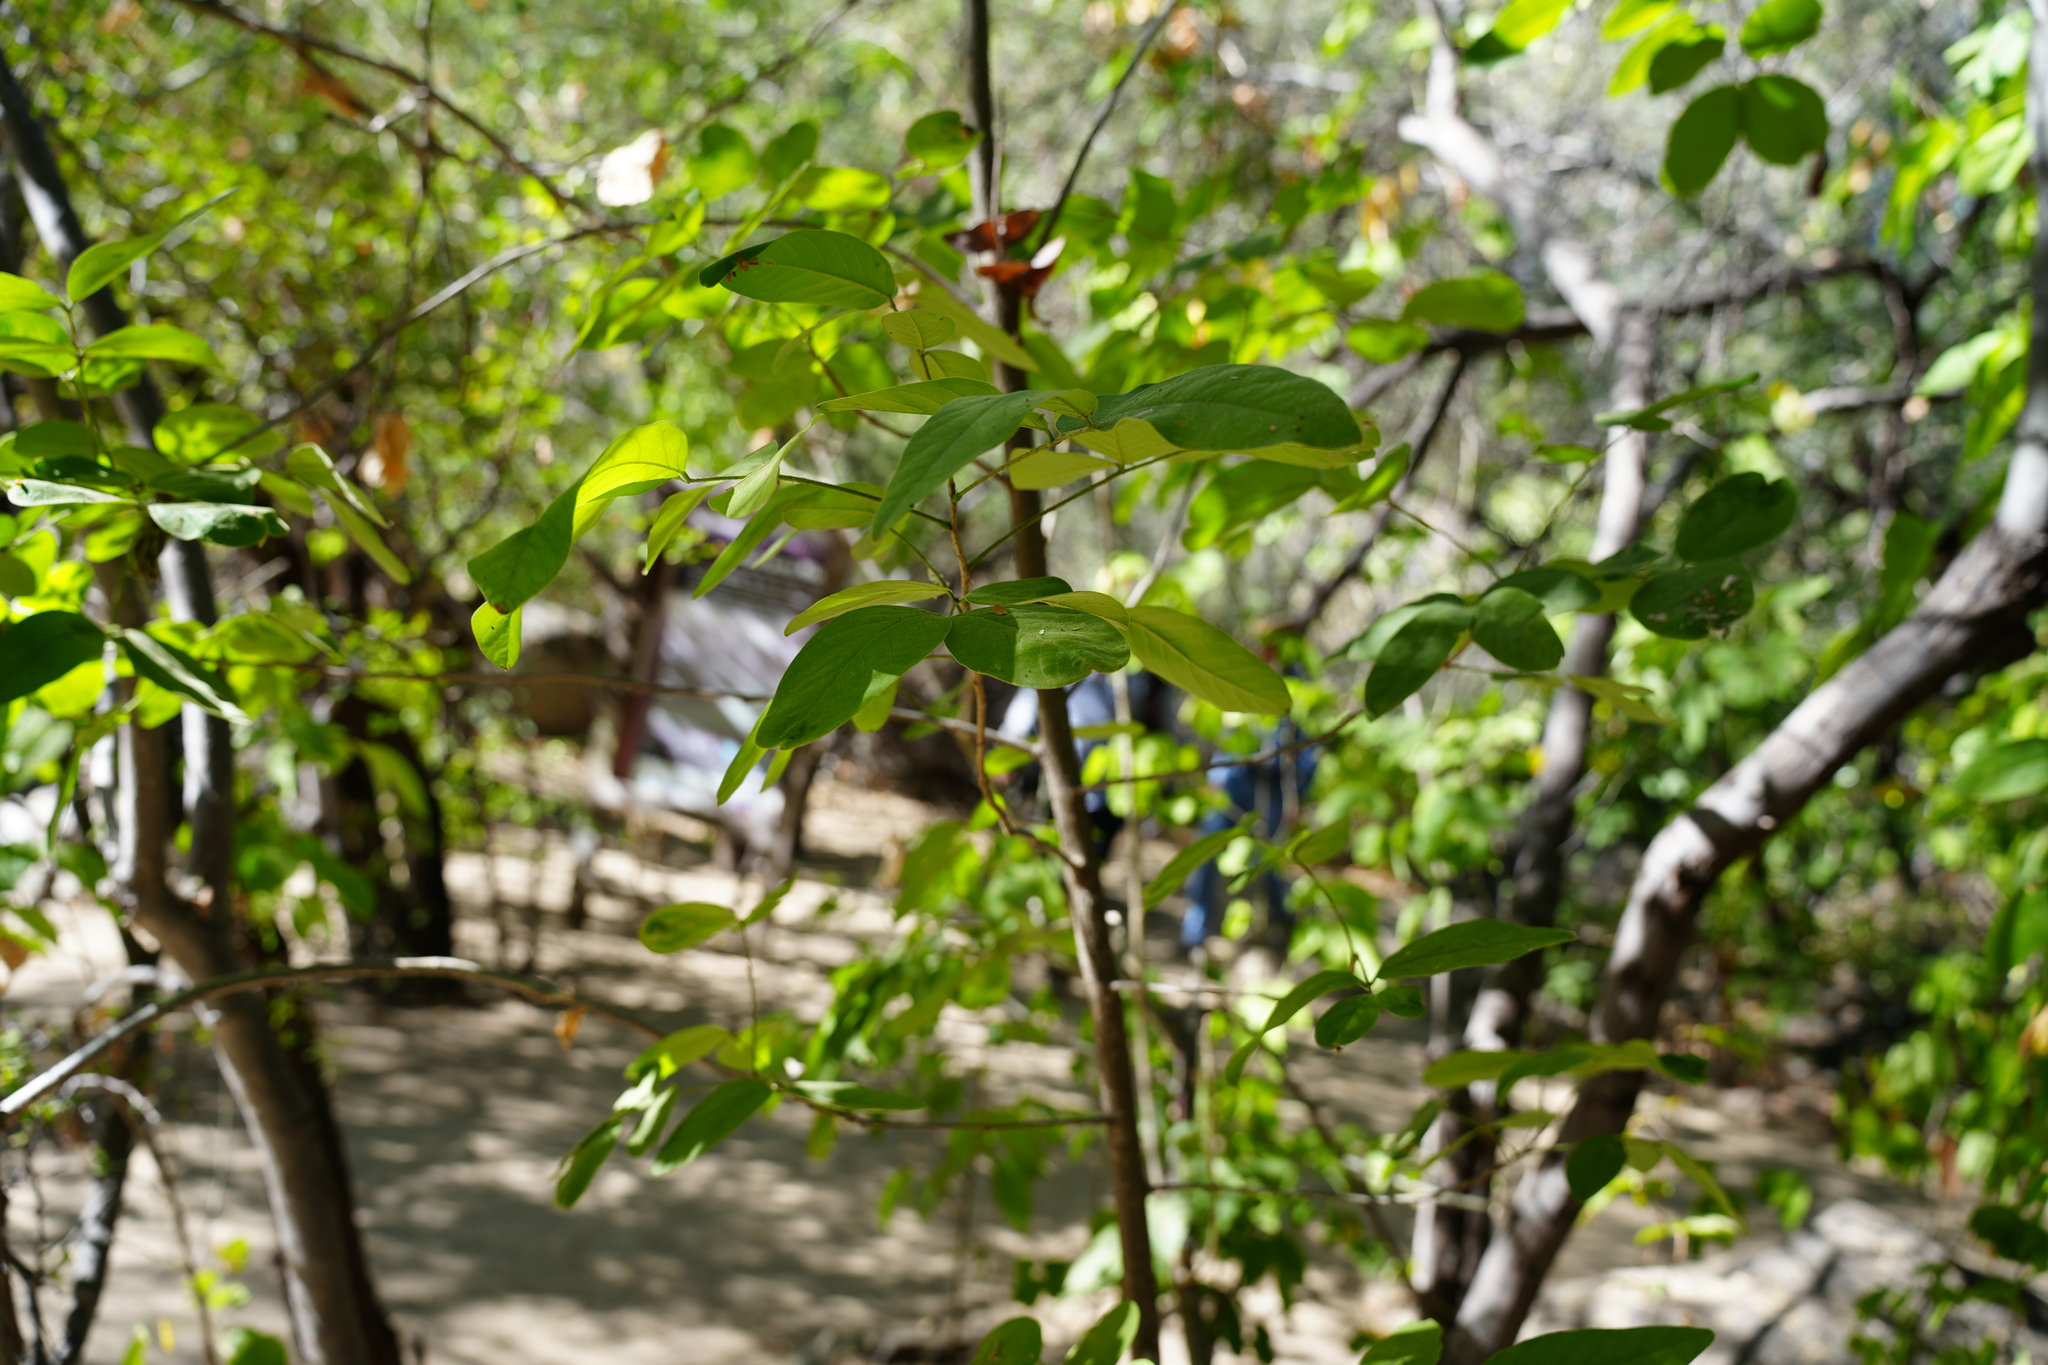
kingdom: Plantae
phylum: Tracheophyta
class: Magnoliopsida
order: Fabales
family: Fabaceae
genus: Senna
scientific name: Senna atomaria
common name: Flor de san jose
